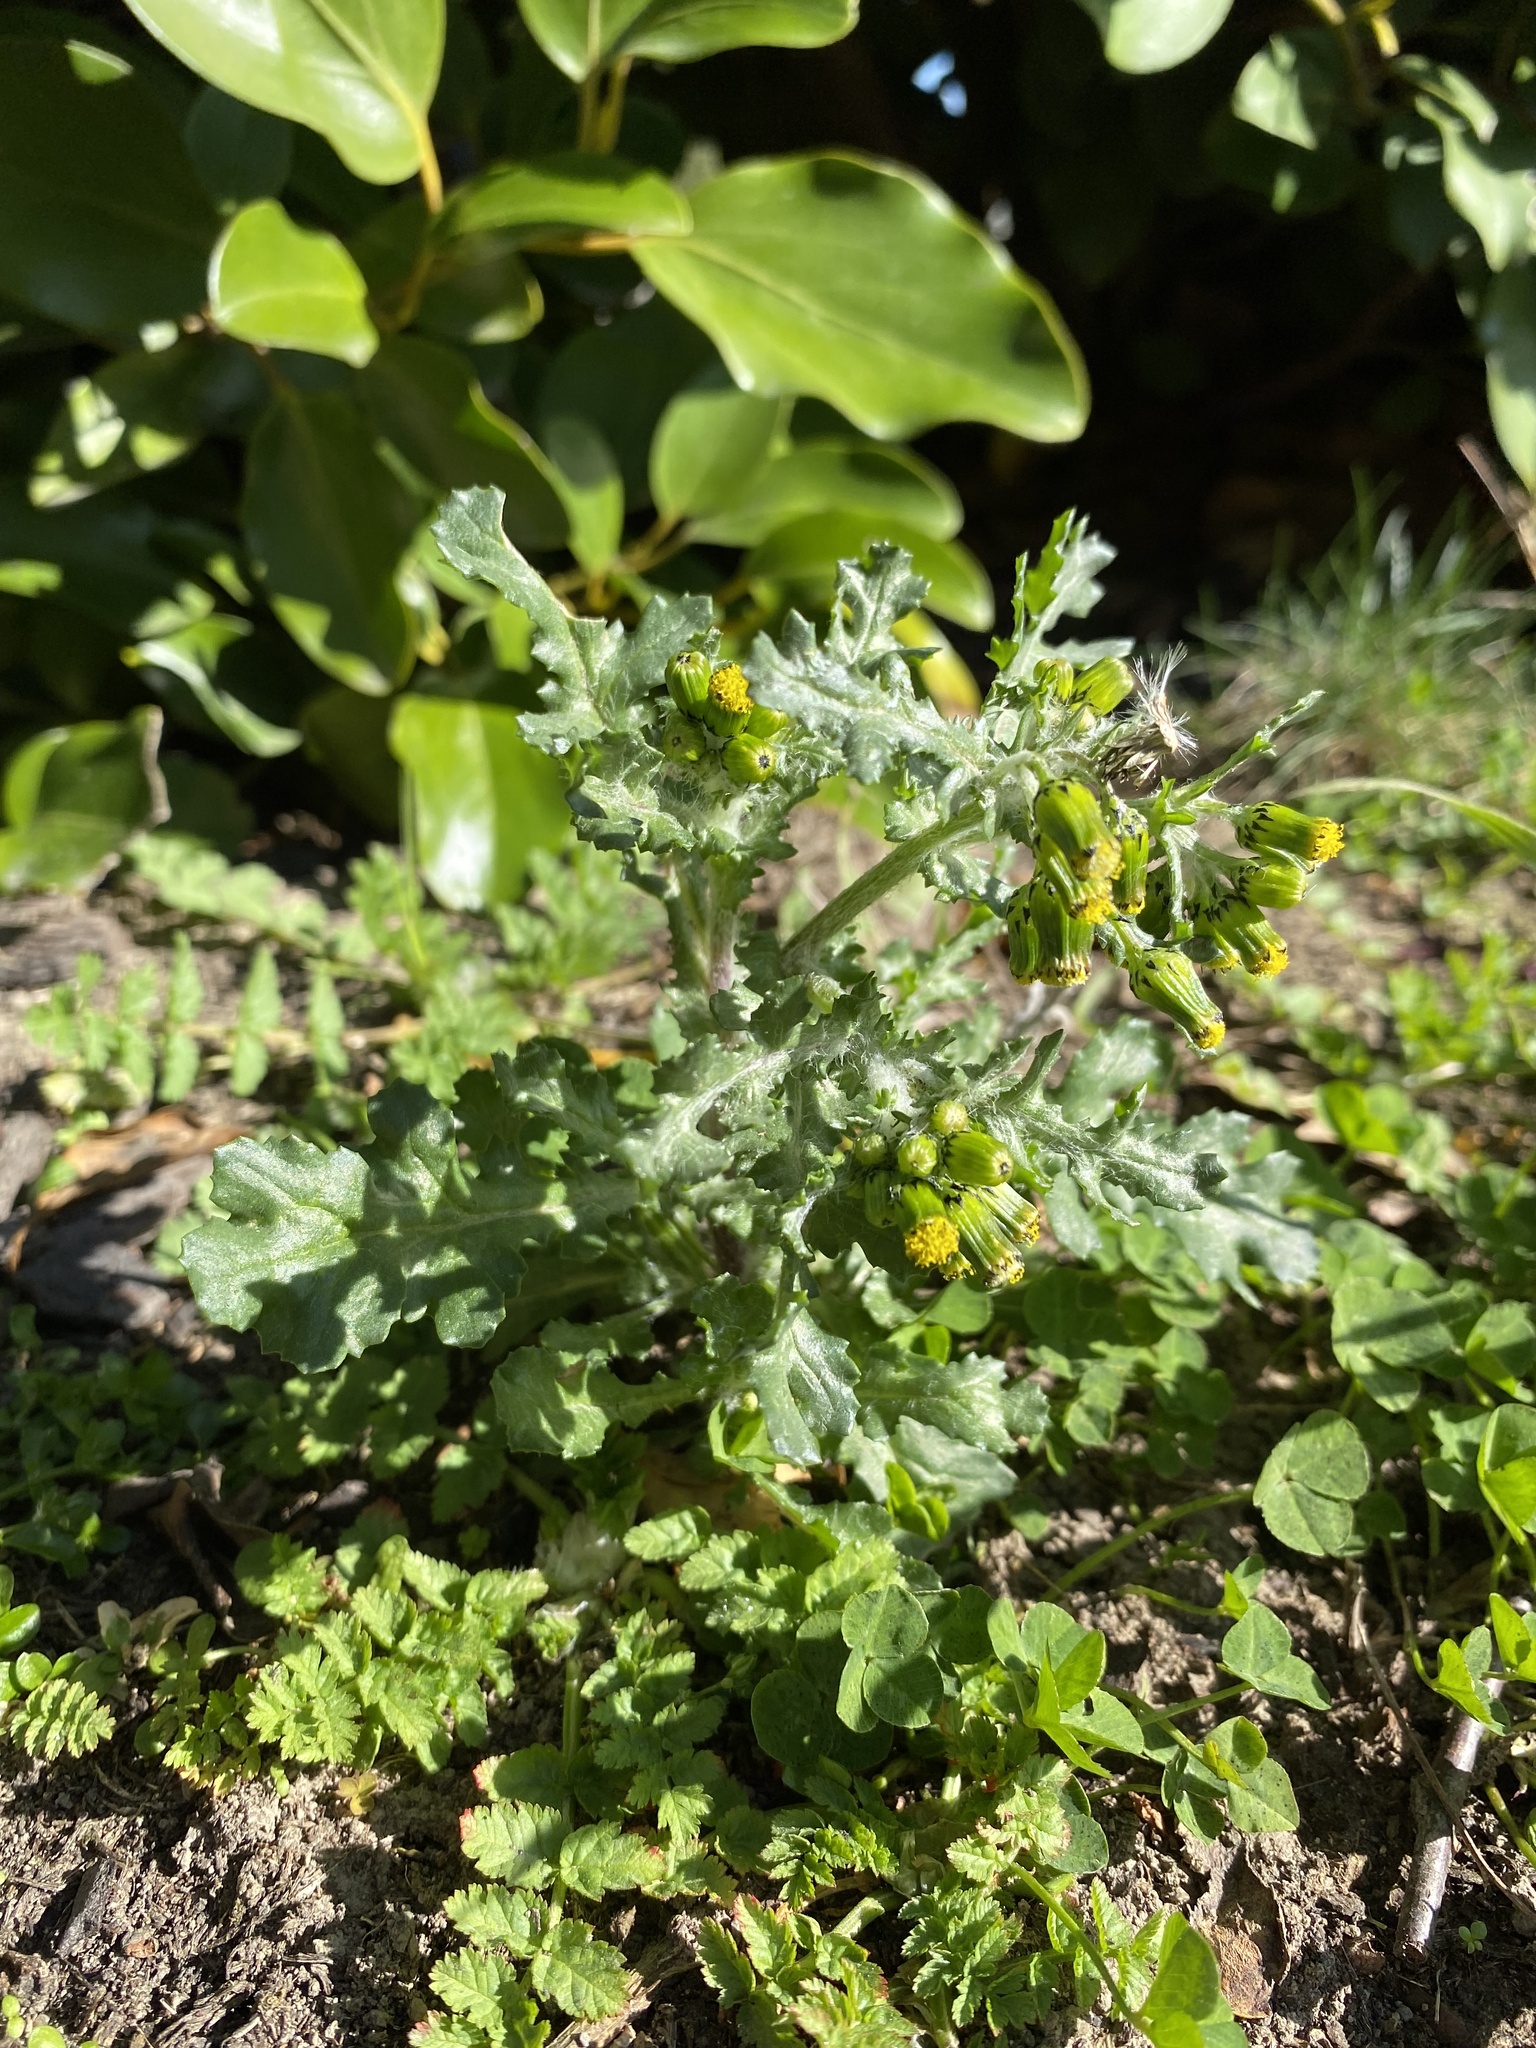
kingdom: Plantae
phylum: Tracheophyta
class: Magnoliopsida
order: Asterales
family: Asteraceae
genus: Senecio
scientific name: Senecio vulgaris
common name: Old-man-in-the-spring
